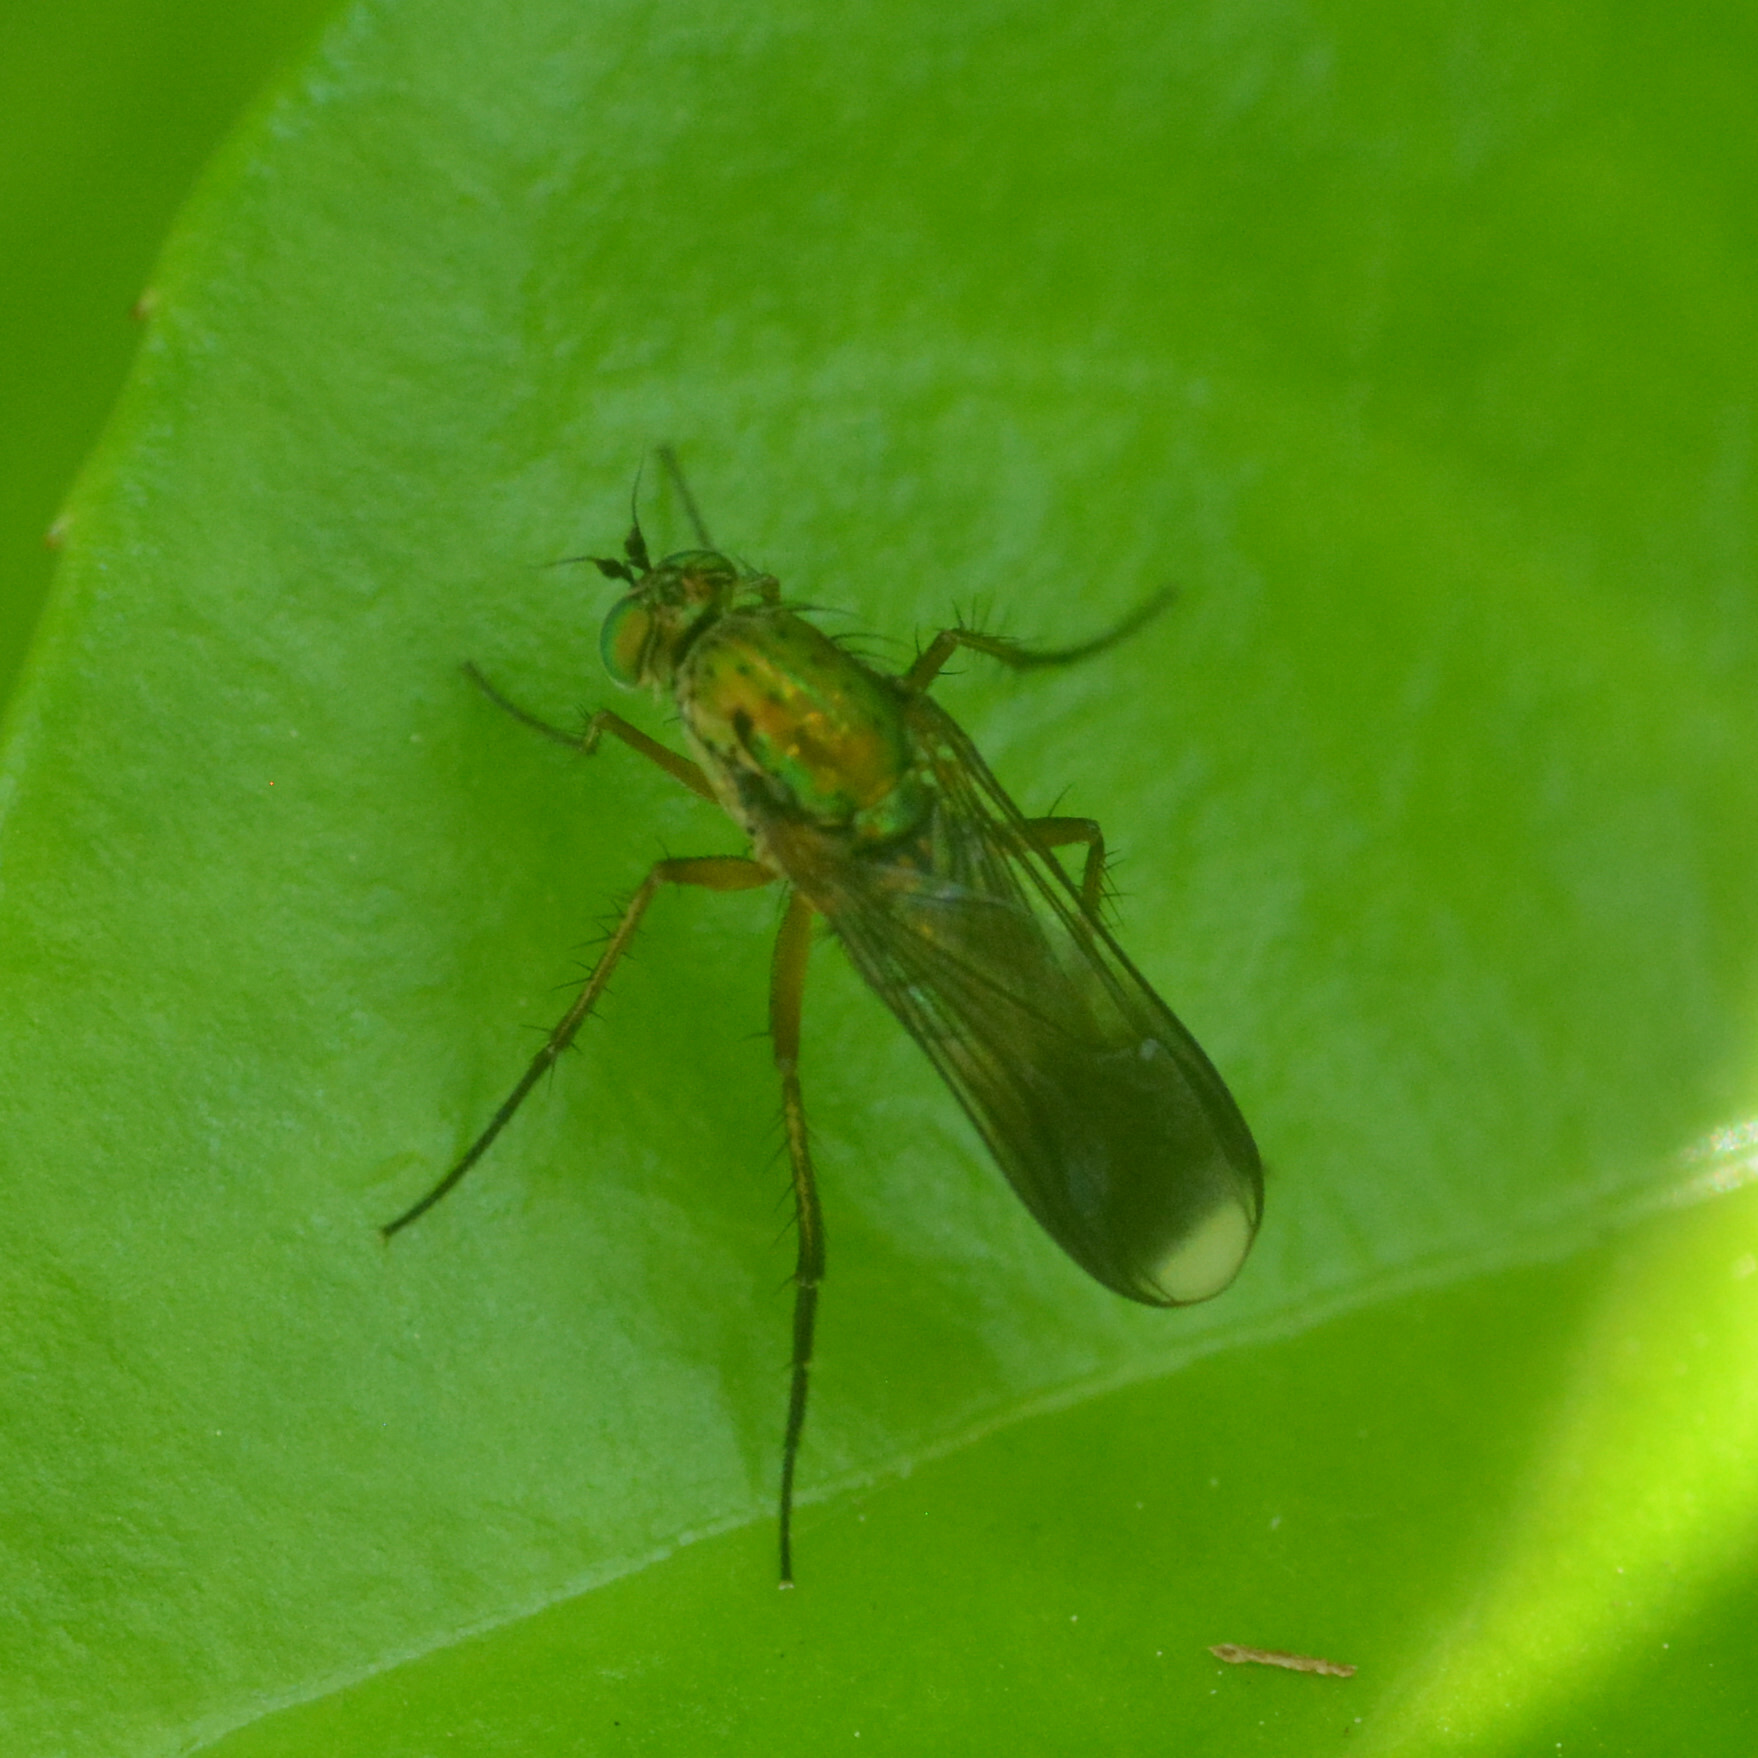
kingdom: Animalia
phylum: Arthropoda
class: Insecta
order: Diptera
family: Dolichopodidae
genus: Poecilobothrus
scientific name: Poecilobothrus nobilitatus
